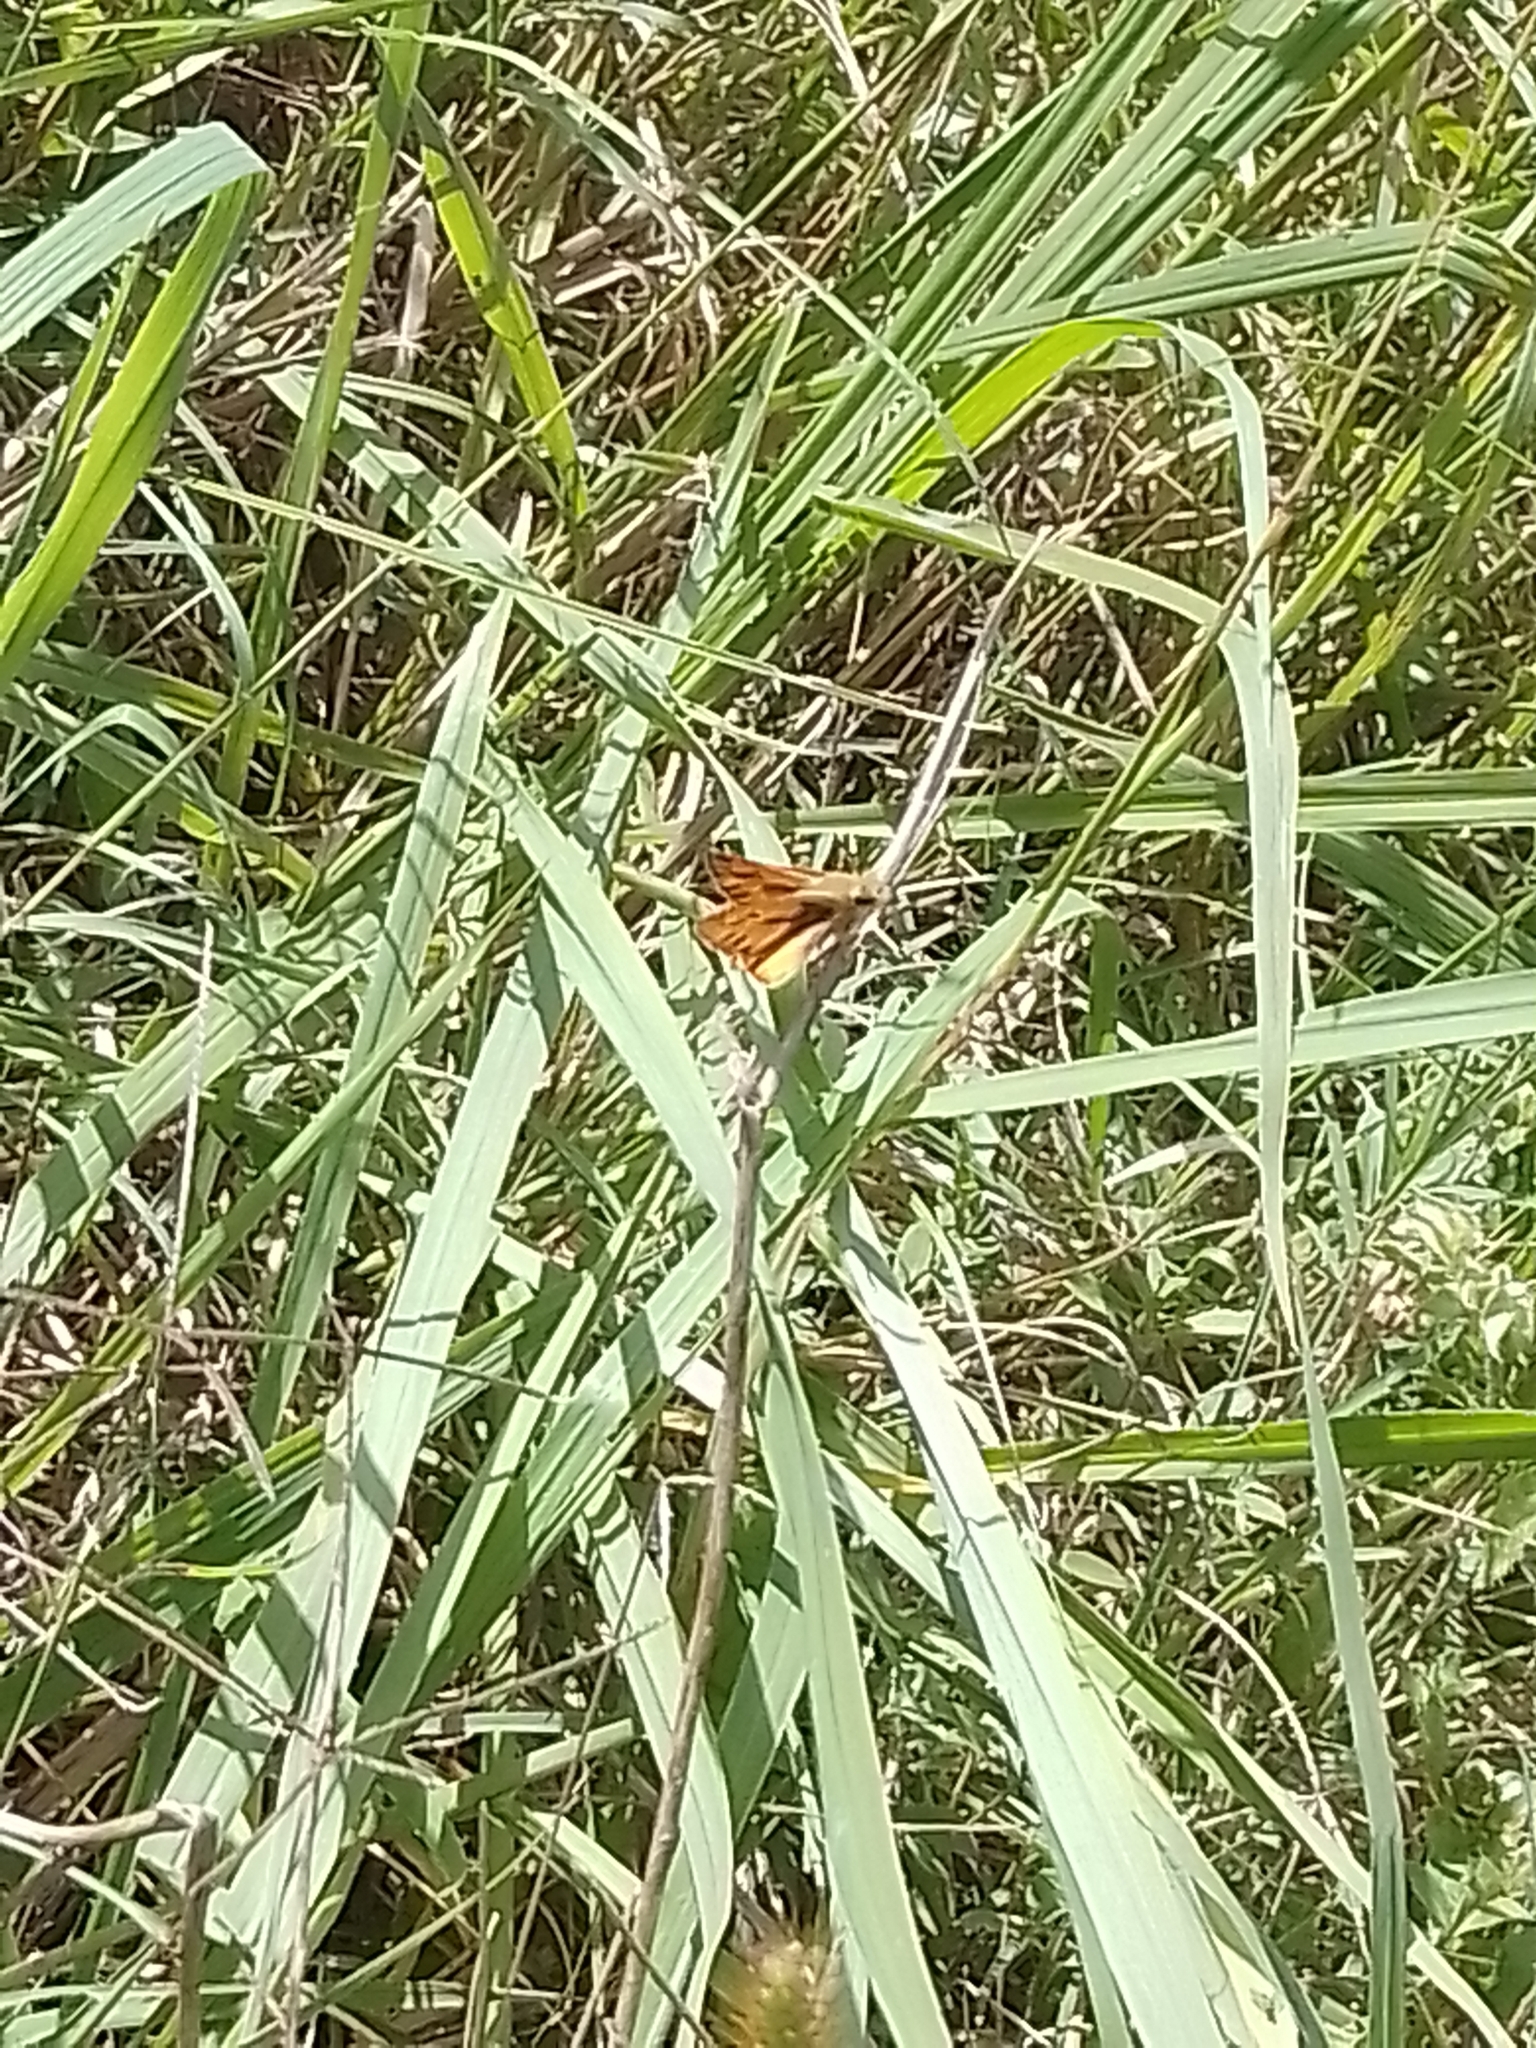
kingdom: Animalia
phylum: Arthropoda
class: Insecta
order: Lepidoptera
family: Hesperiidae
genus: Hylephila
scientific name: Hylephila phyleus
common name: Fiery skipper
